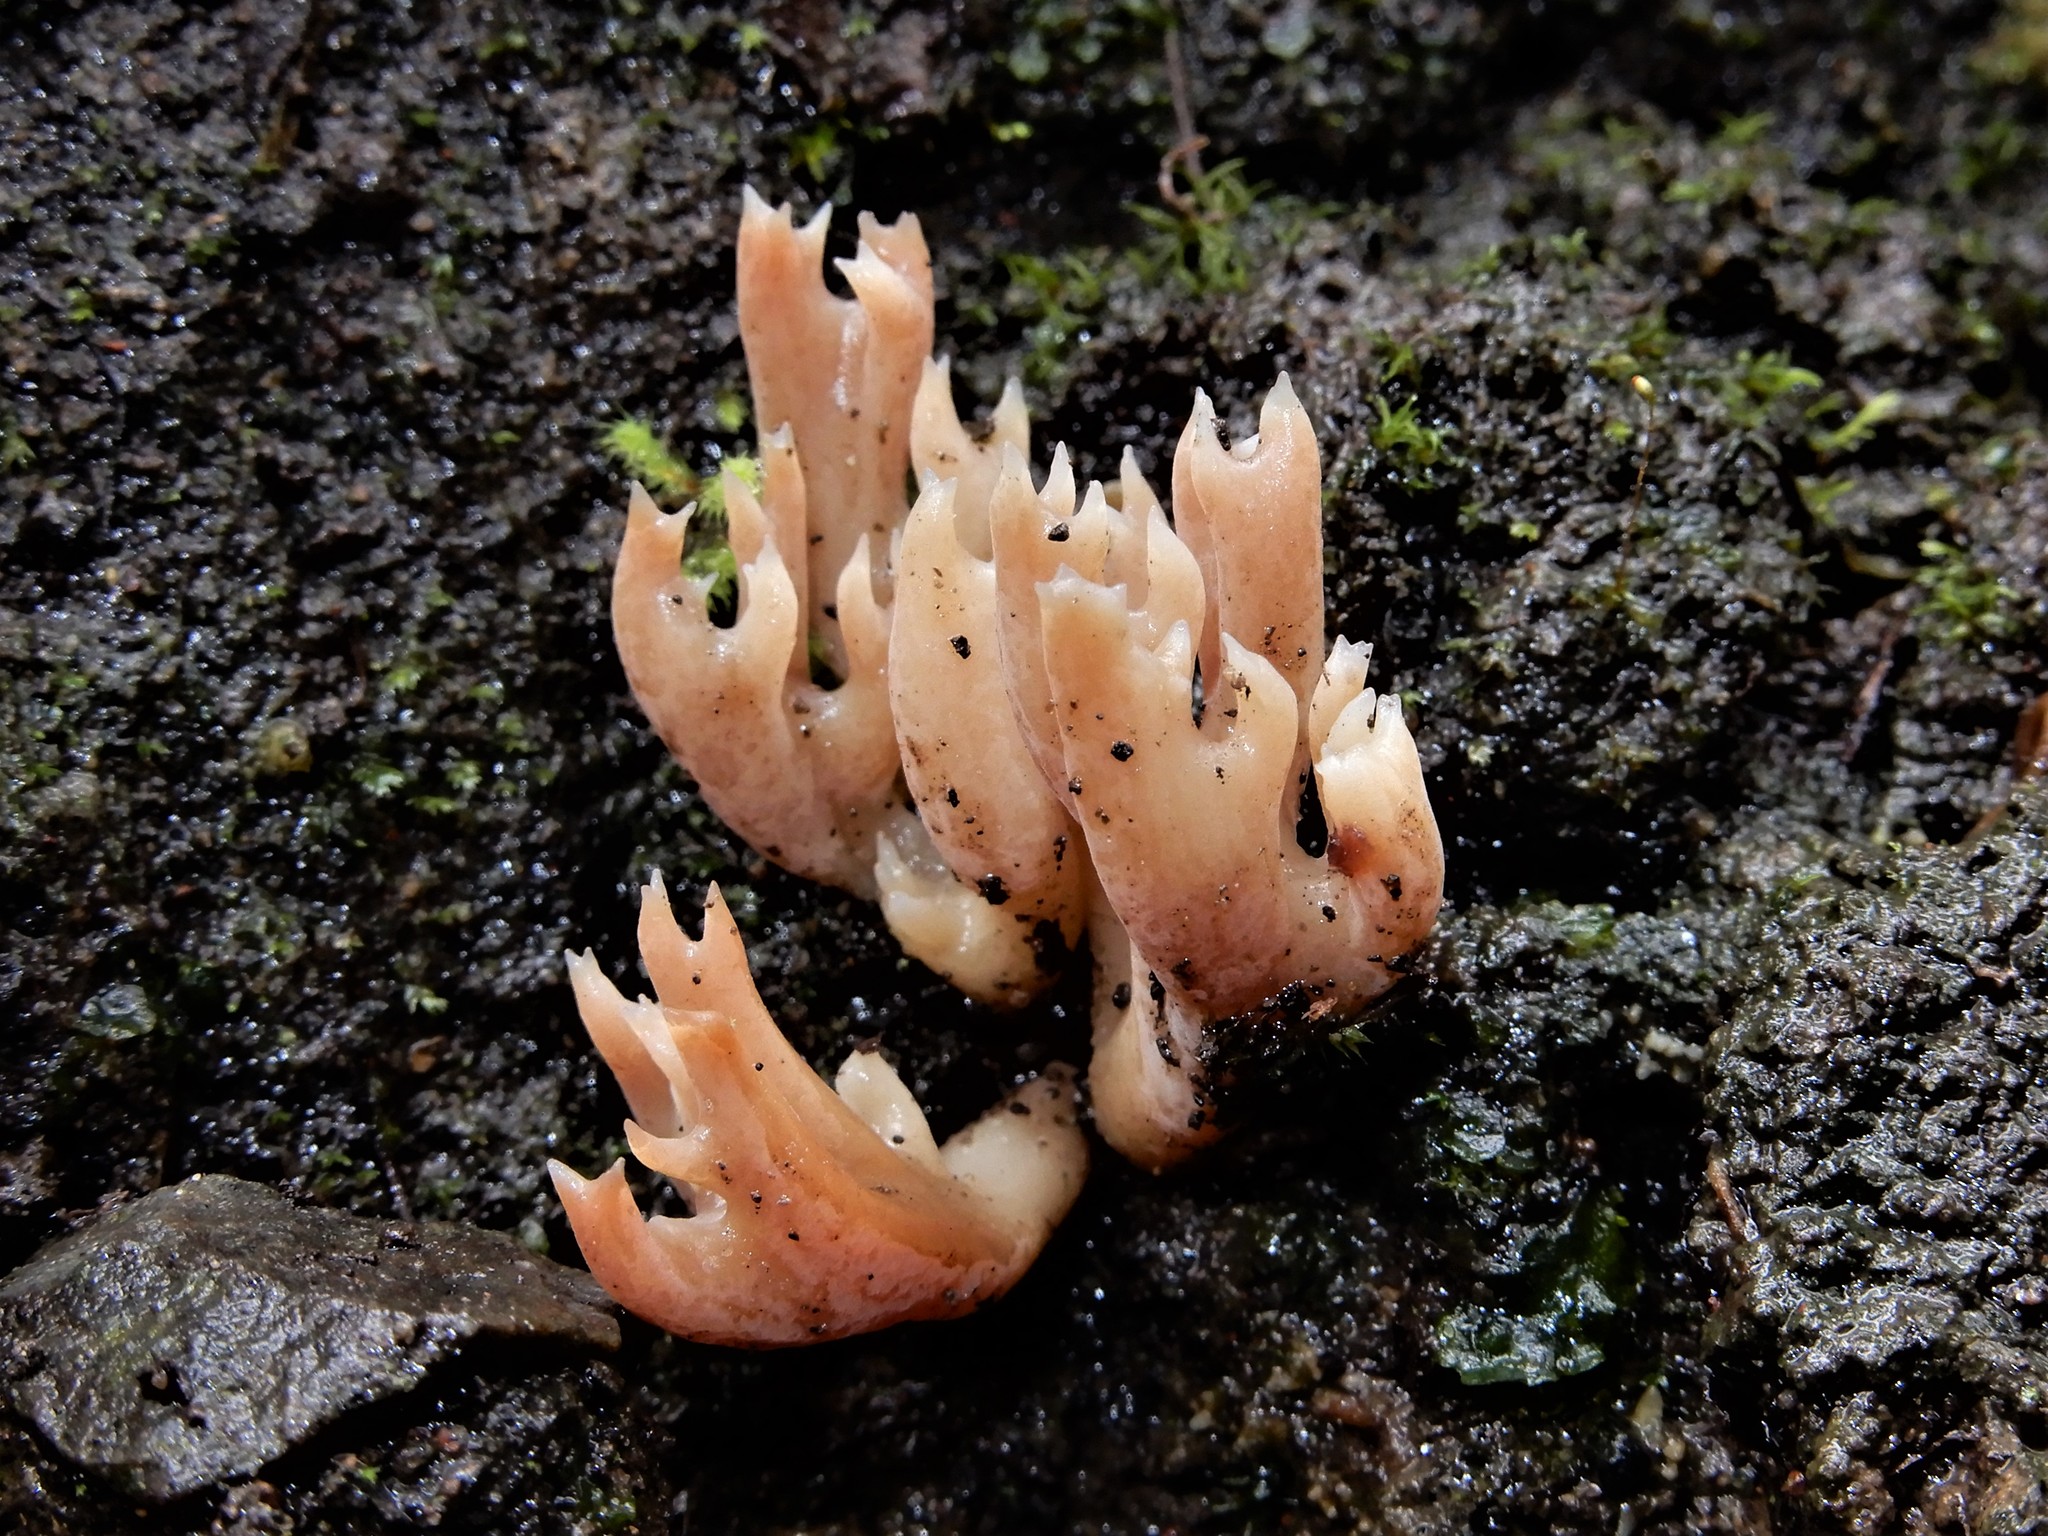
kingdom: Fungi
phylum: Basidiomycota
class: Agaricomycetes
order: Agaricales
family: Clavariaceae
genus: Ramariopsis
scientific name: Ramariopsis
